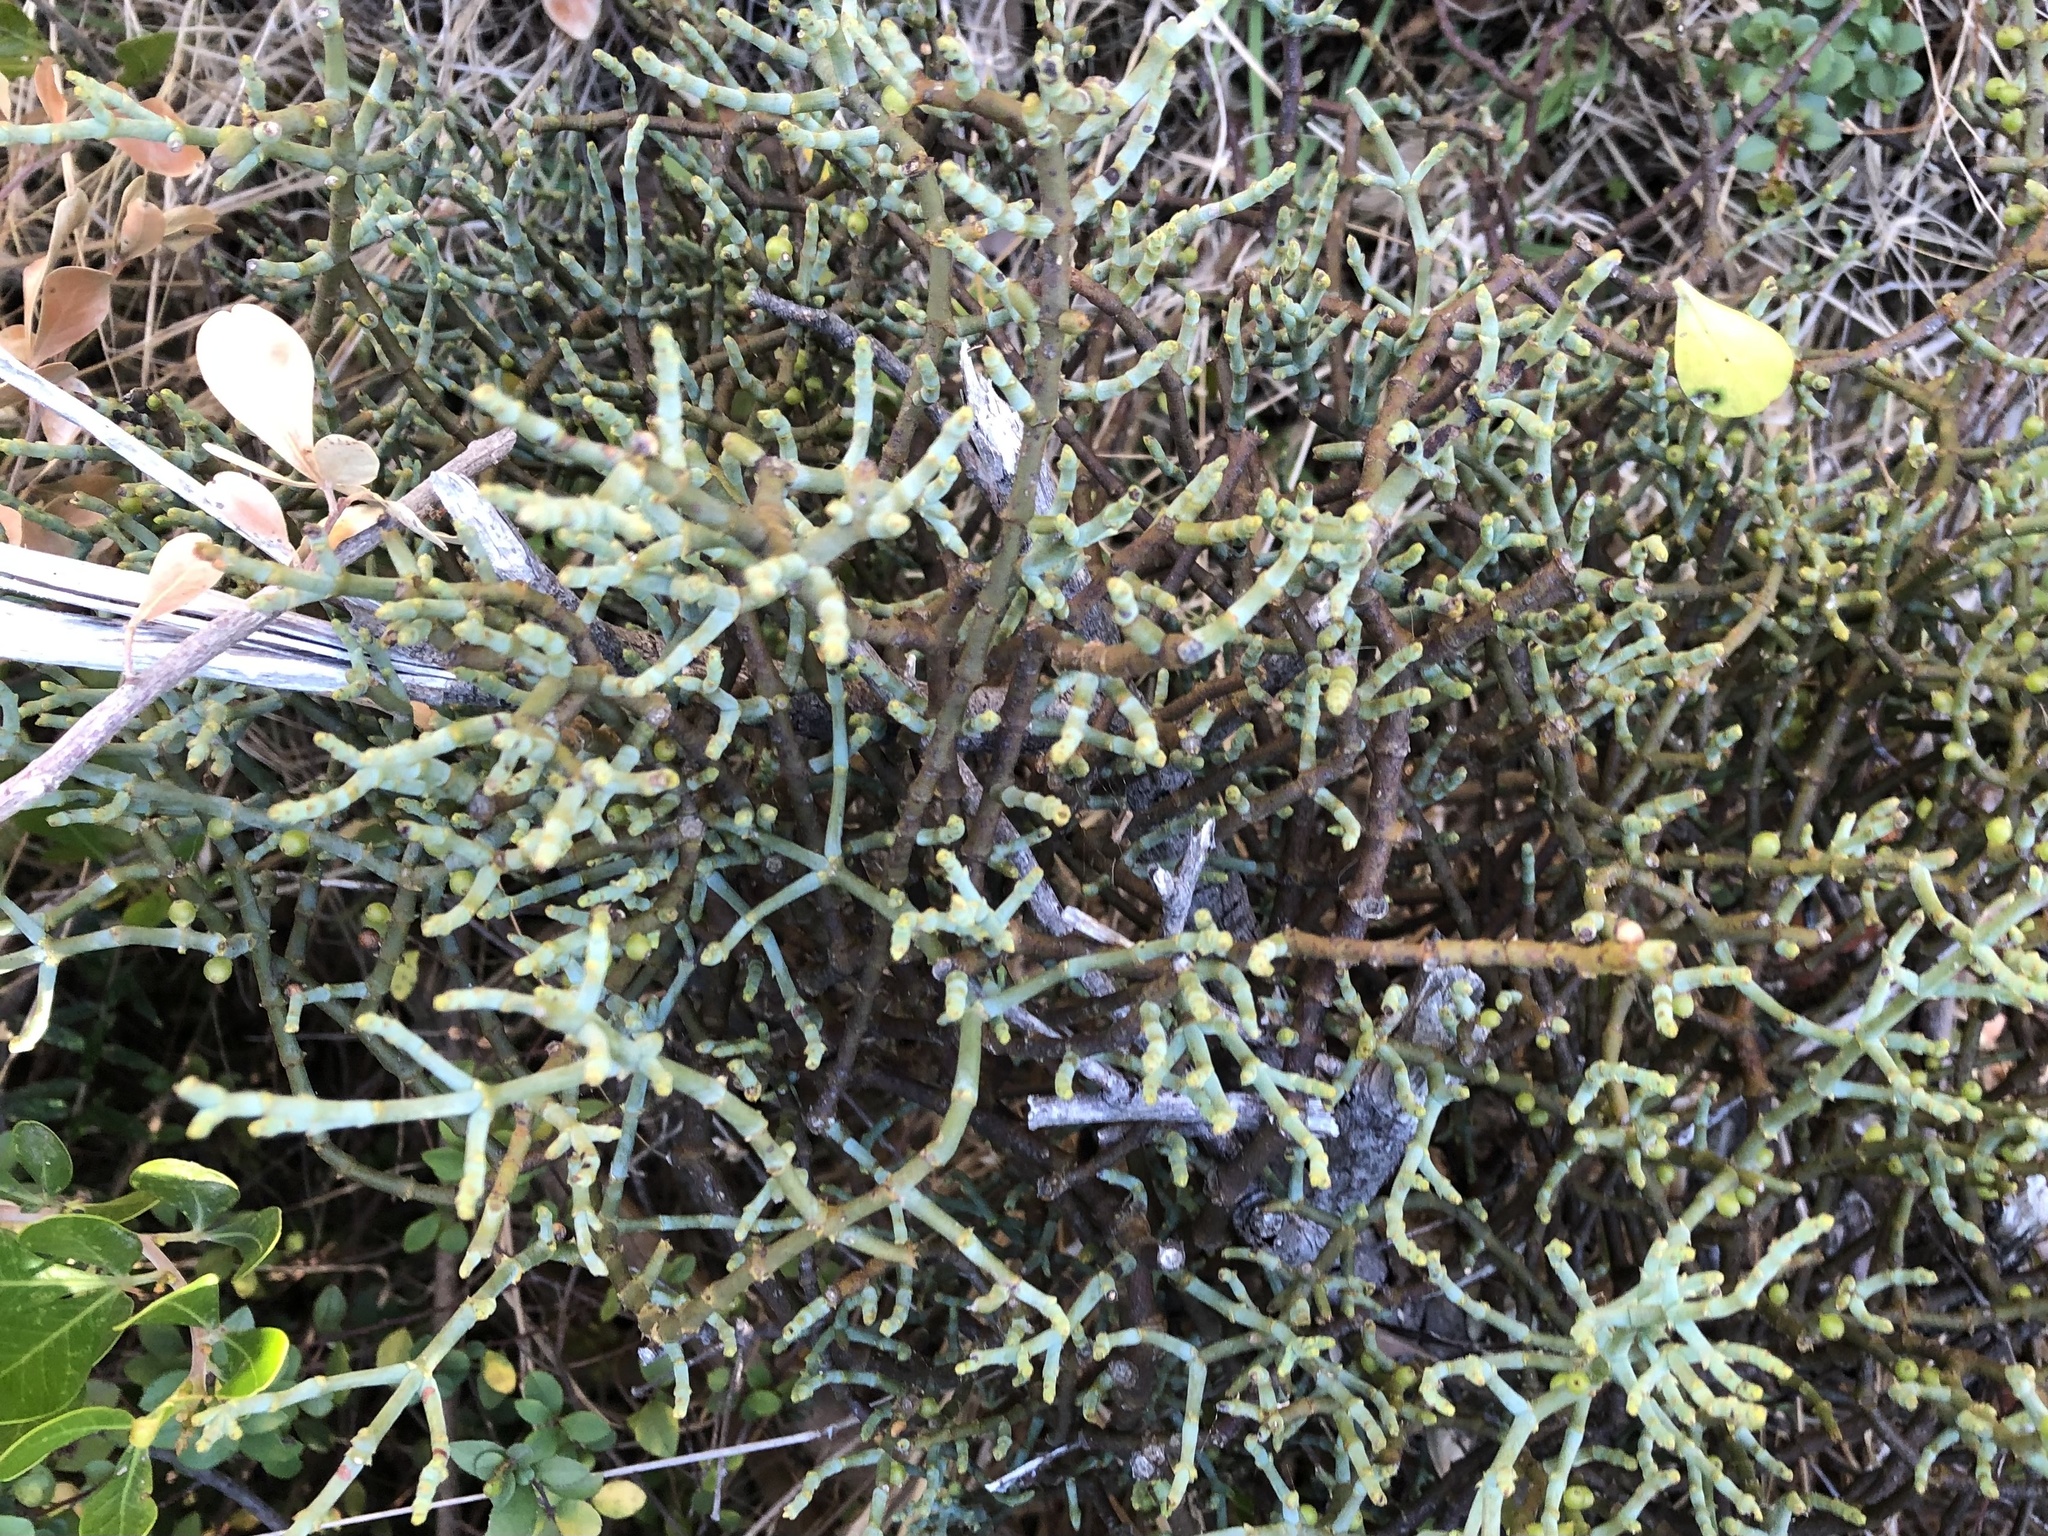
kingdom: Plantae
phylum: Tracheophyta
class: Magnoliopsida
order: Santalales
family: Viscaceae
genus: Viscum
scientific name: Viscum capense
